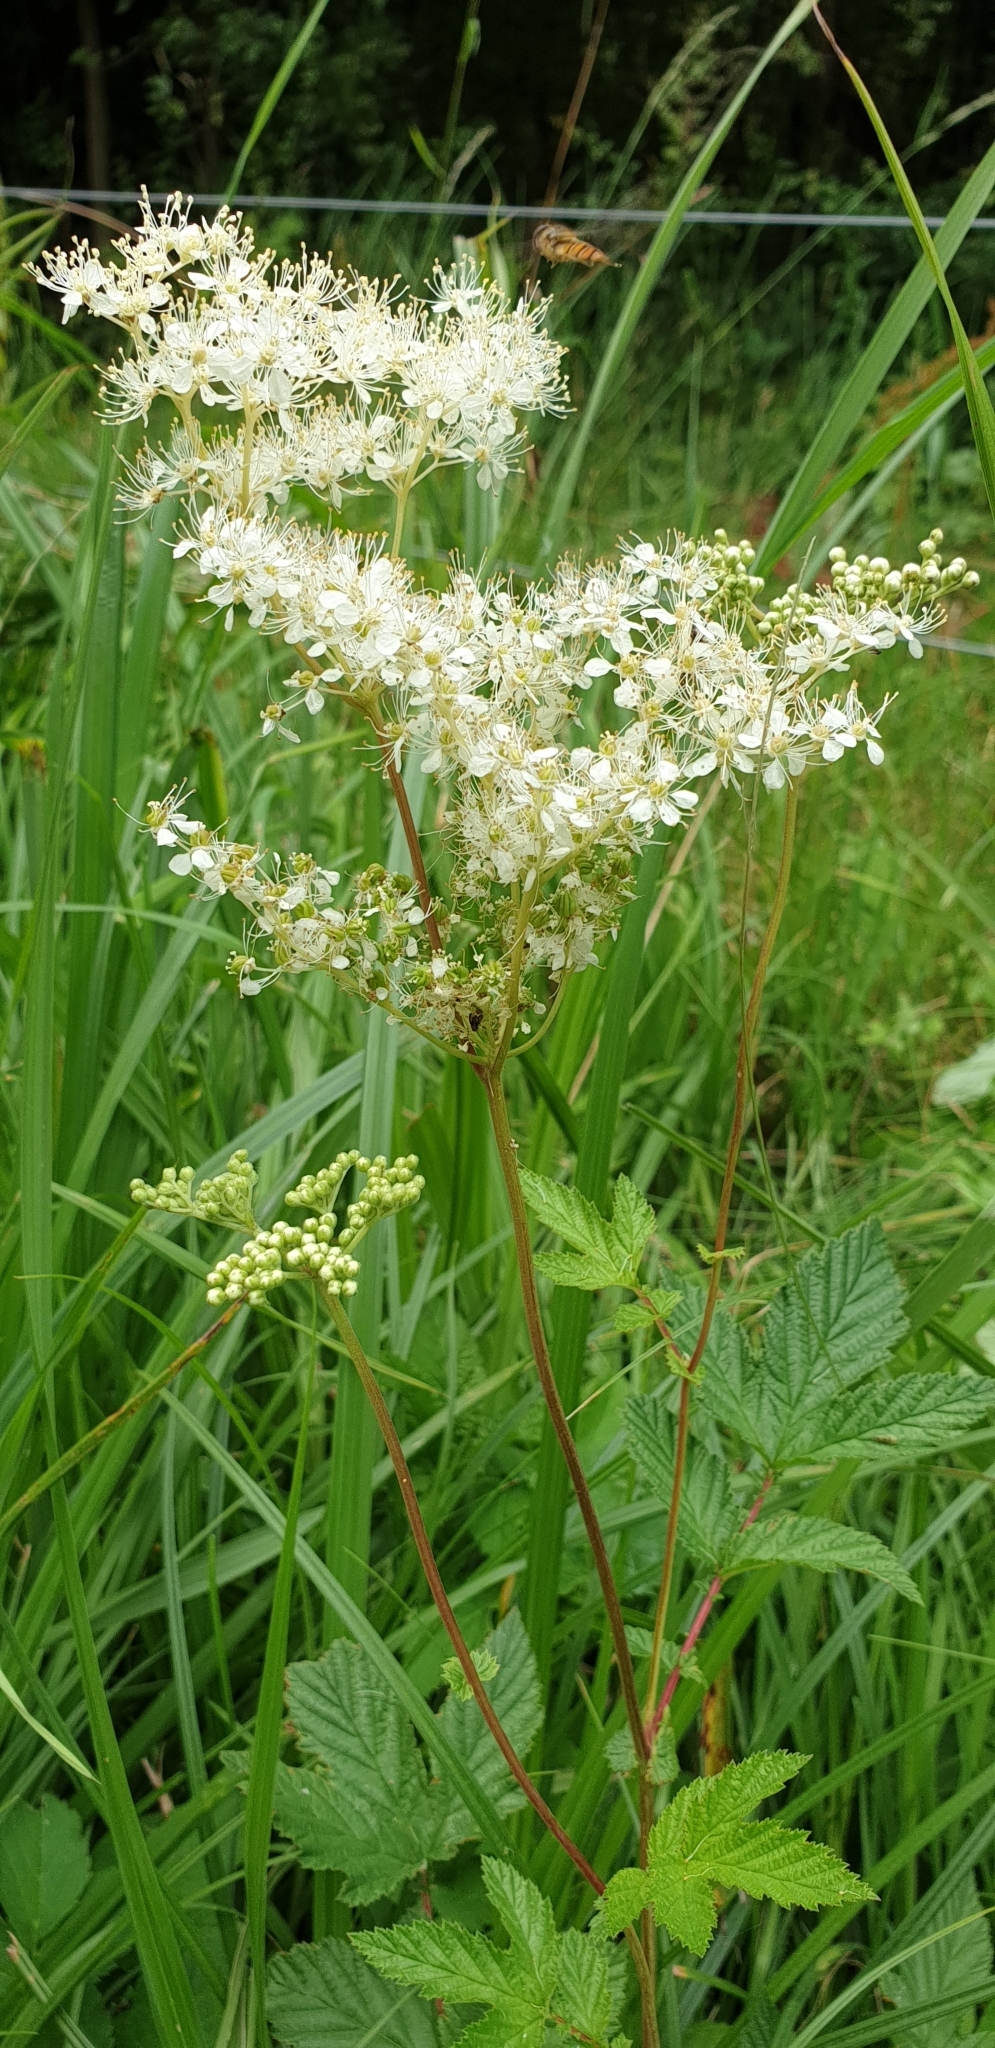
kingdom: Plantae
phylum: Tracheophyta
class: Magnoliopsida
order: Rosales
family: Rosaceae
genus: Filipendula
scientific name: Filipendula ulmaria
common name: Meadowsweet
